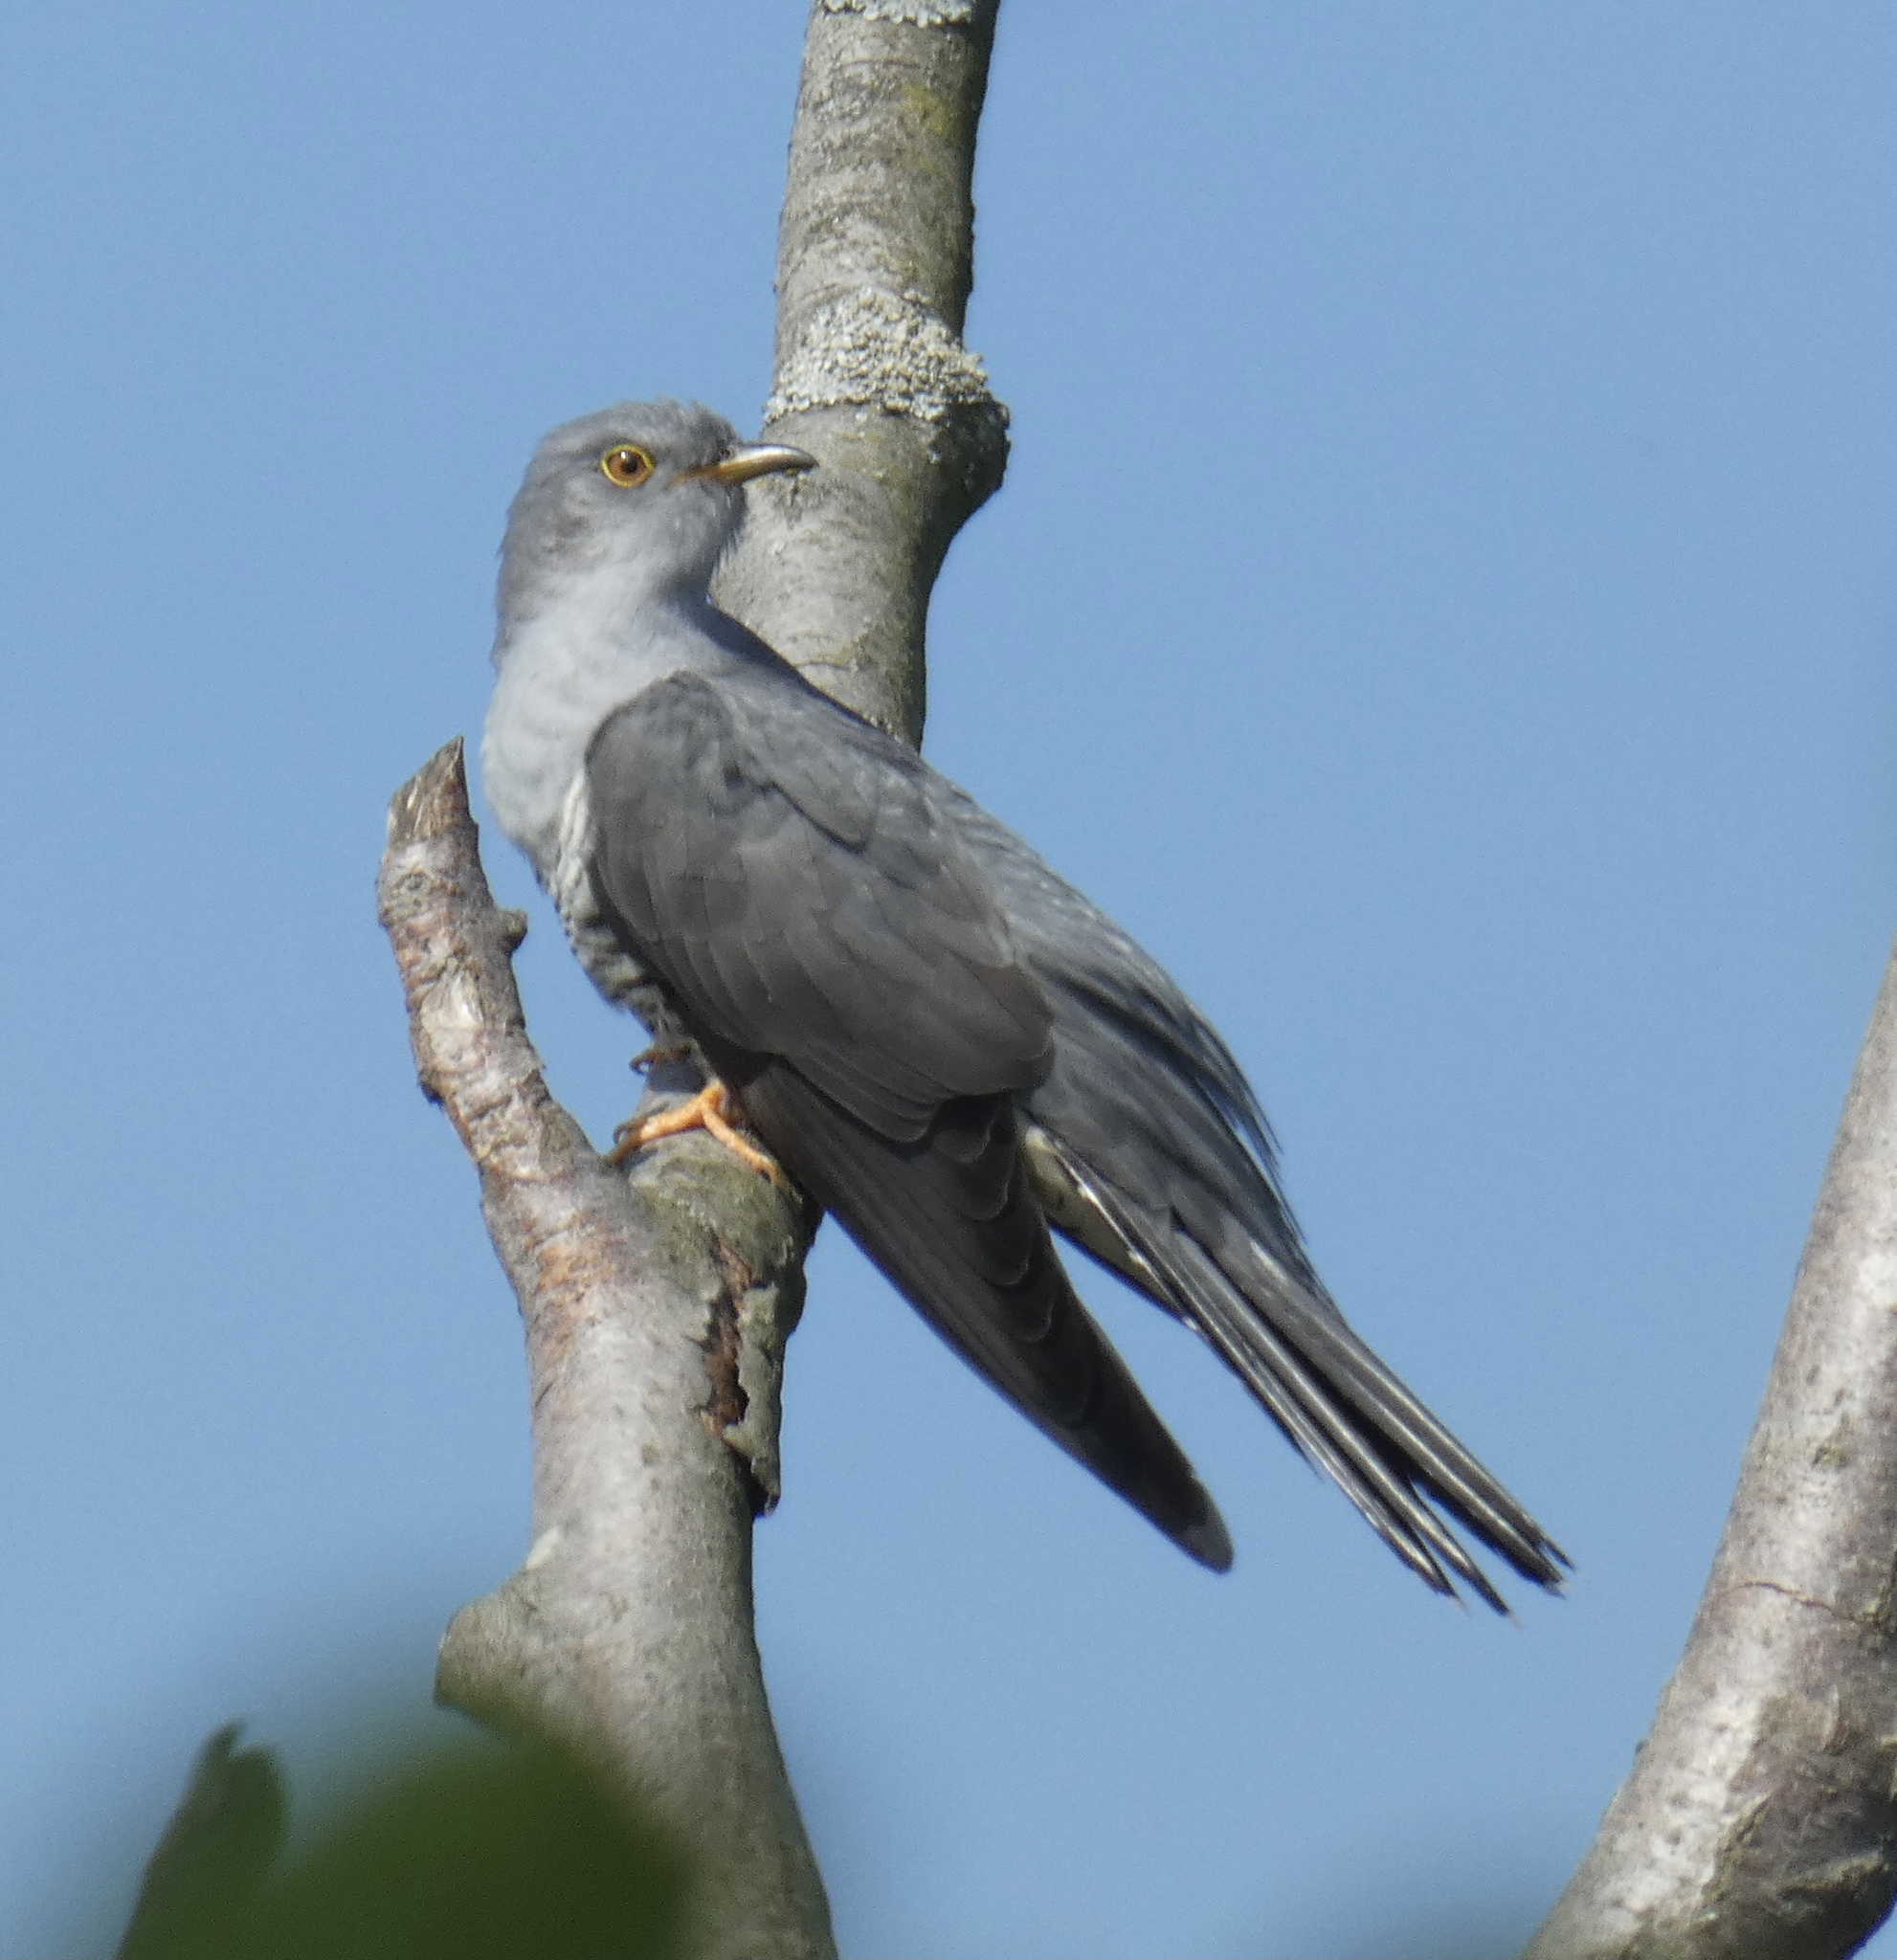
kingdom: Animalia
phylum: Chordata
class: Aves
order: Cuculiformes
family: Cuculidae
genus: Cuculus
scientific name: Cuculus canorus
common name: Common cuckoo
